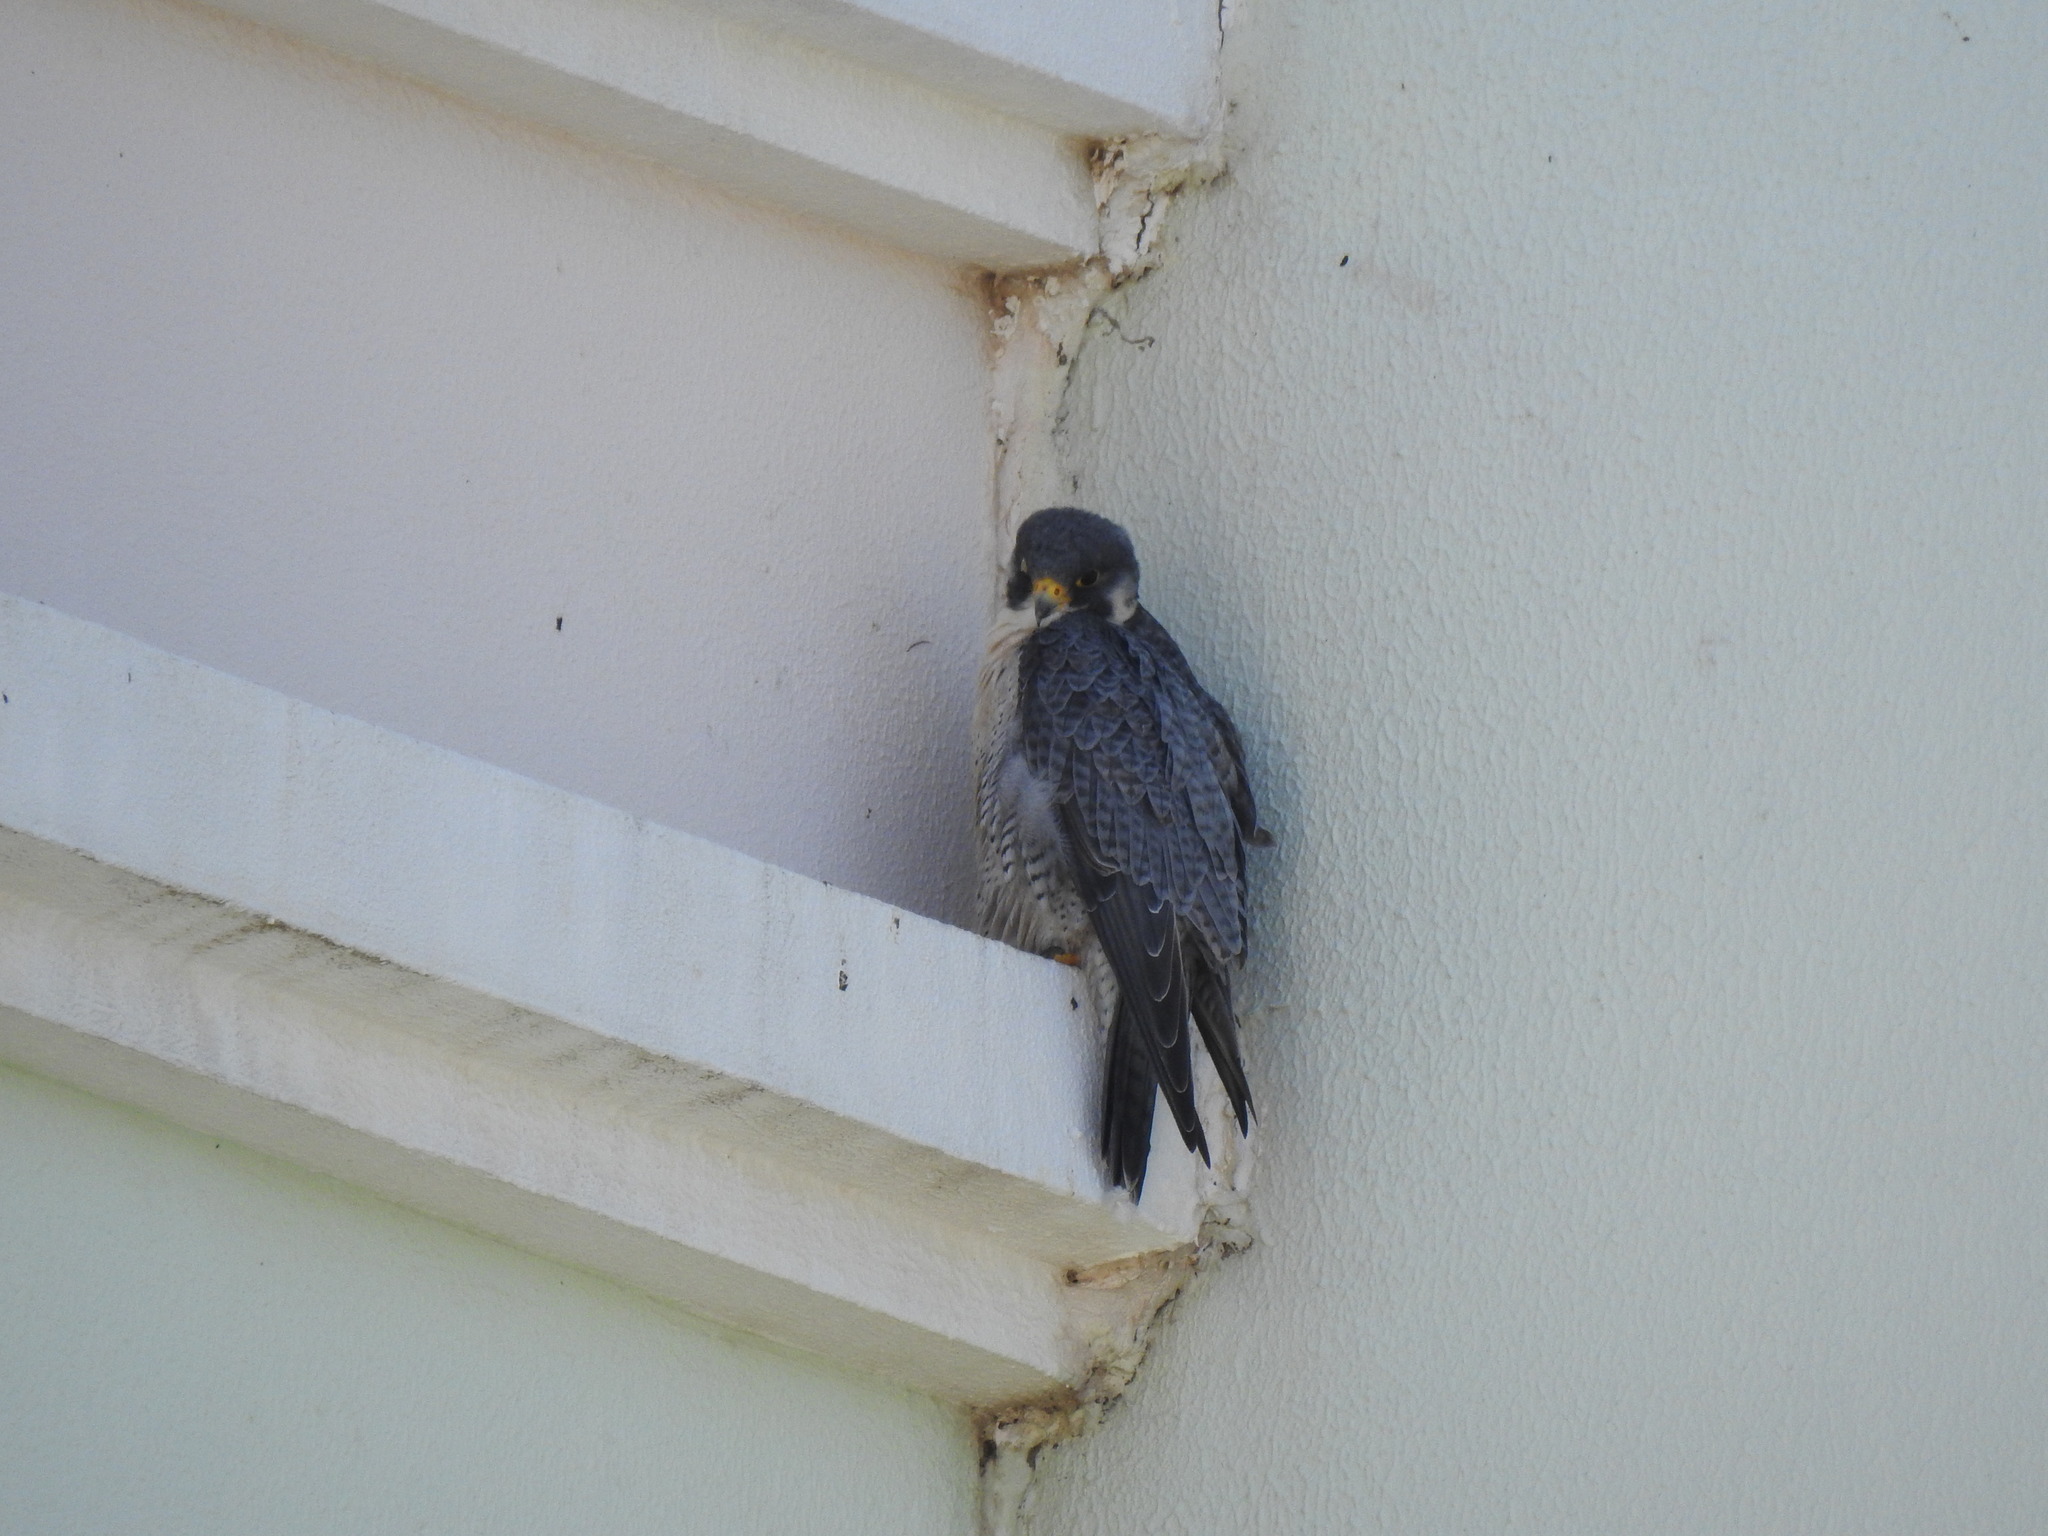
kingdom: Animalia
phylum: Chordata
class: Aves
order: Falconiformes
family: Falconidae
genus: Falco
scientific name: Falco peregrinus
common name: Peregrine falcon
